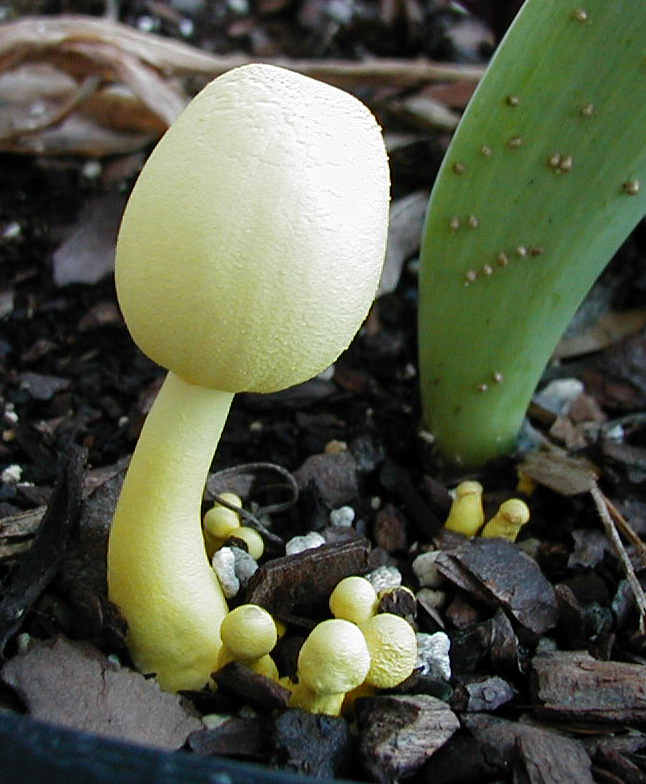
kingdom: Fungi
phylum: Basidiomycota
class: Agaricomycetes
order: Agaricales
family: Agaricaceae
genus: Leucocoprinus
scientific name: Leucocoprinus birnbaumii
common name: Plantpot dapperling
